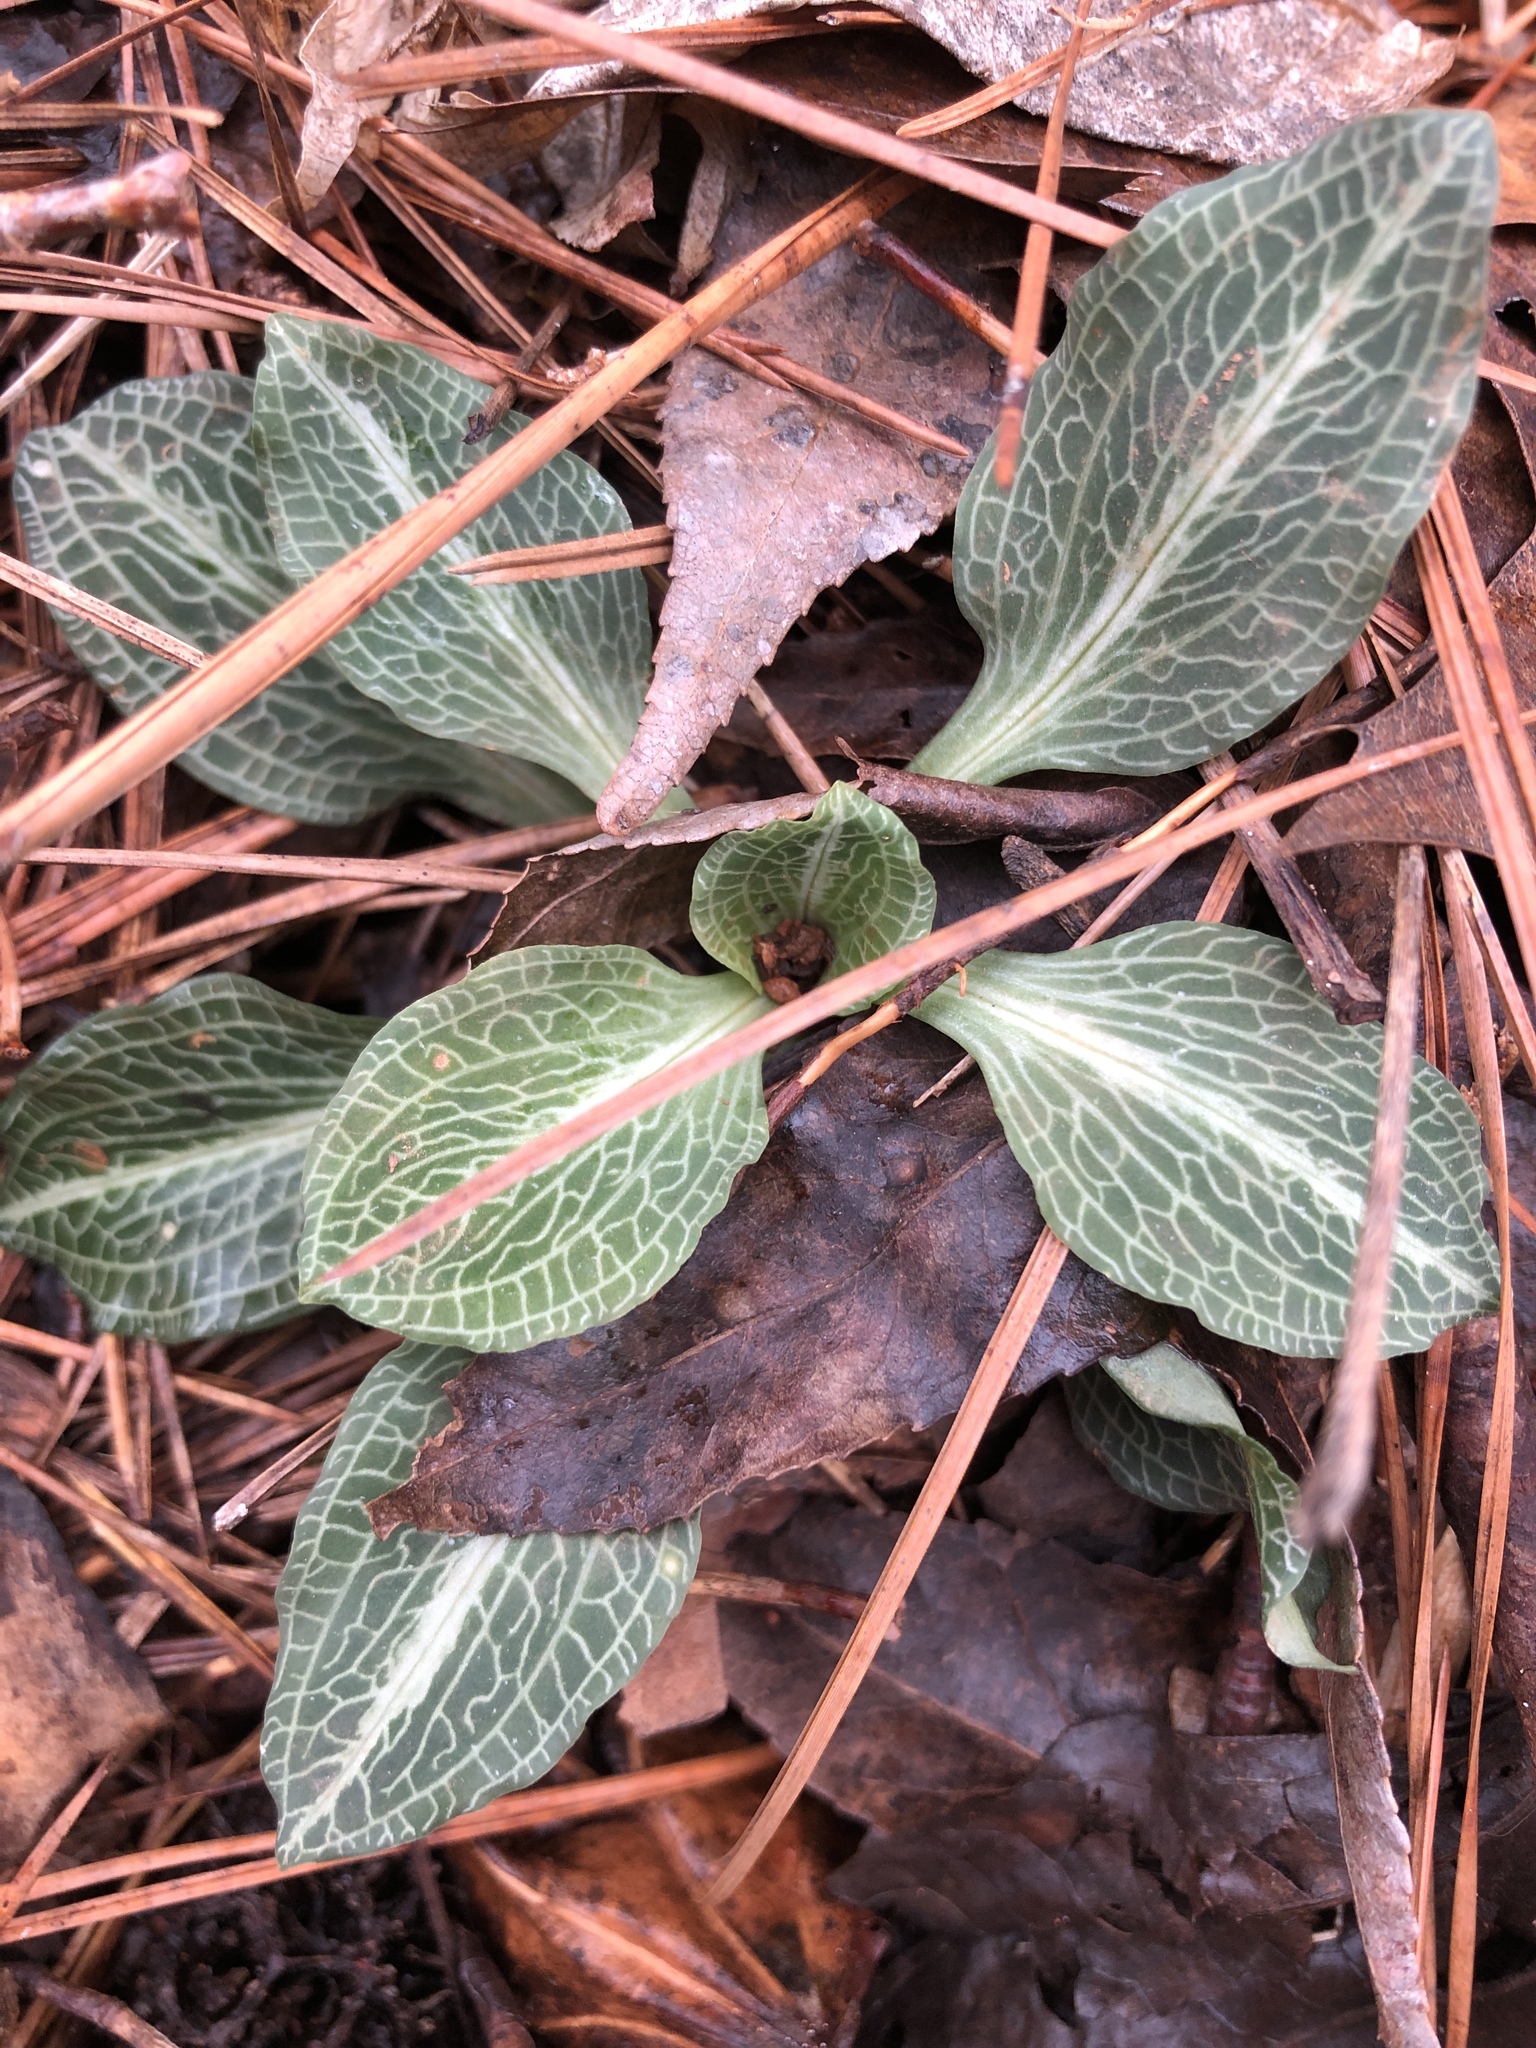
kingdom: Plantae
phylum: Tracheophyta
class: Liliopsida
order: Asparagales
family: Orchidaceae
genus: Goodyera
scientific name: Goodyera pubescens
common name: Downy rattlesnake-plantain
